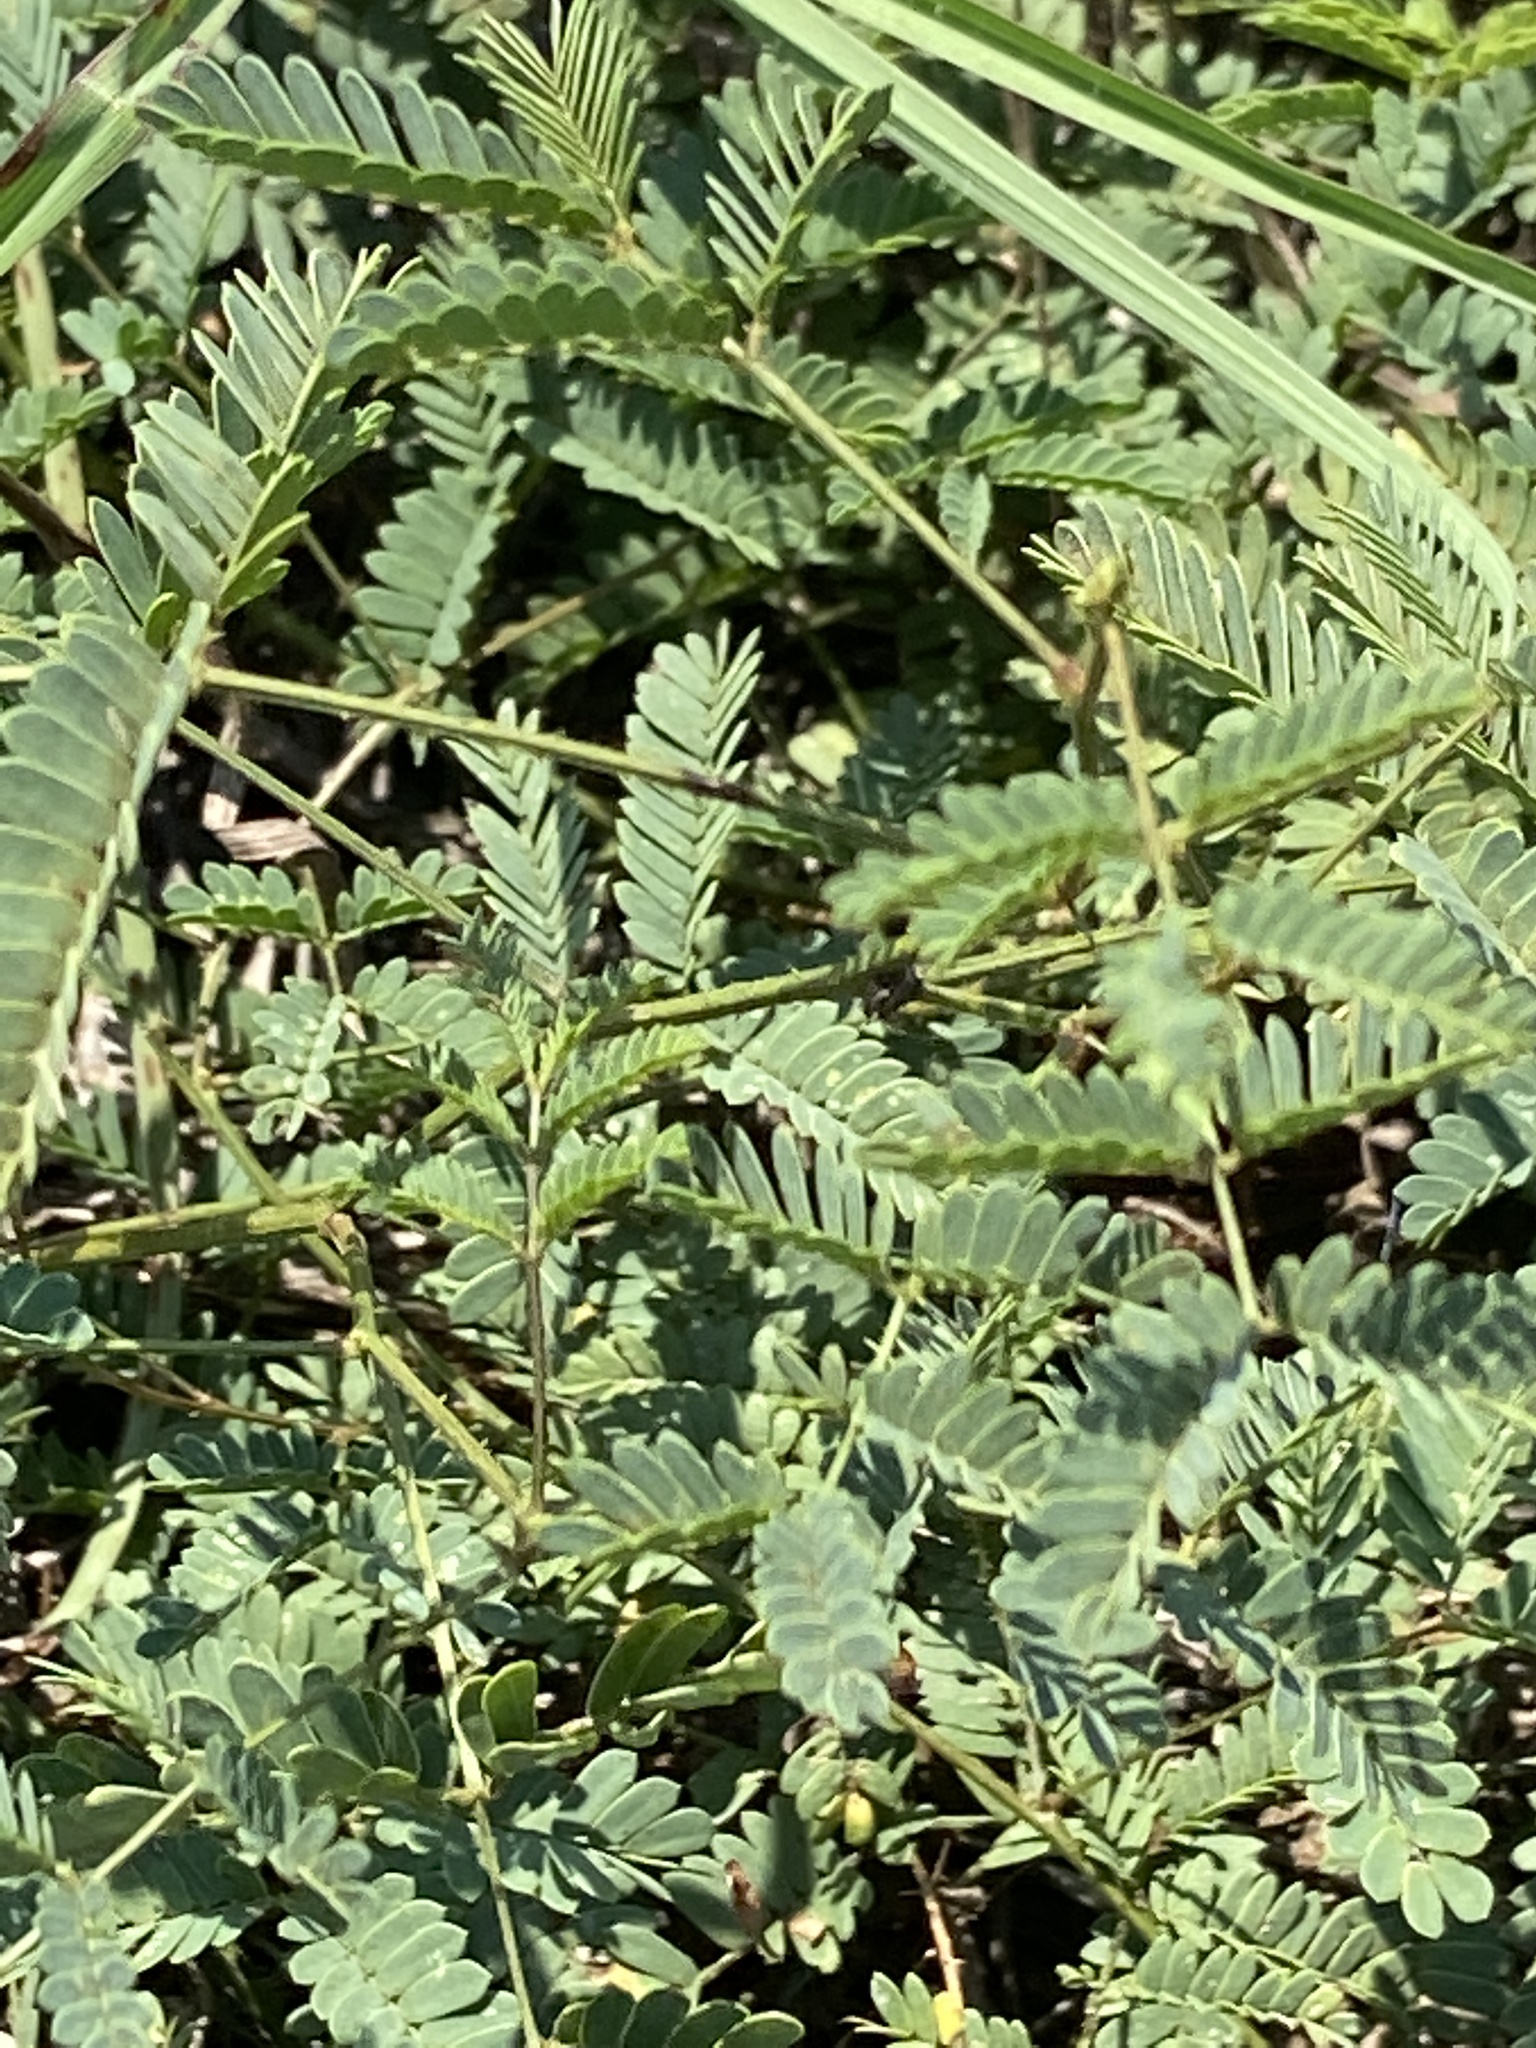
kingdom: Plantae
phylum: Tracheophyta
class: Magnoliopsida
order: Fabales
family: Fabaceae
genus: Mimosa
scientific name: Mimosa quadrivalvis
